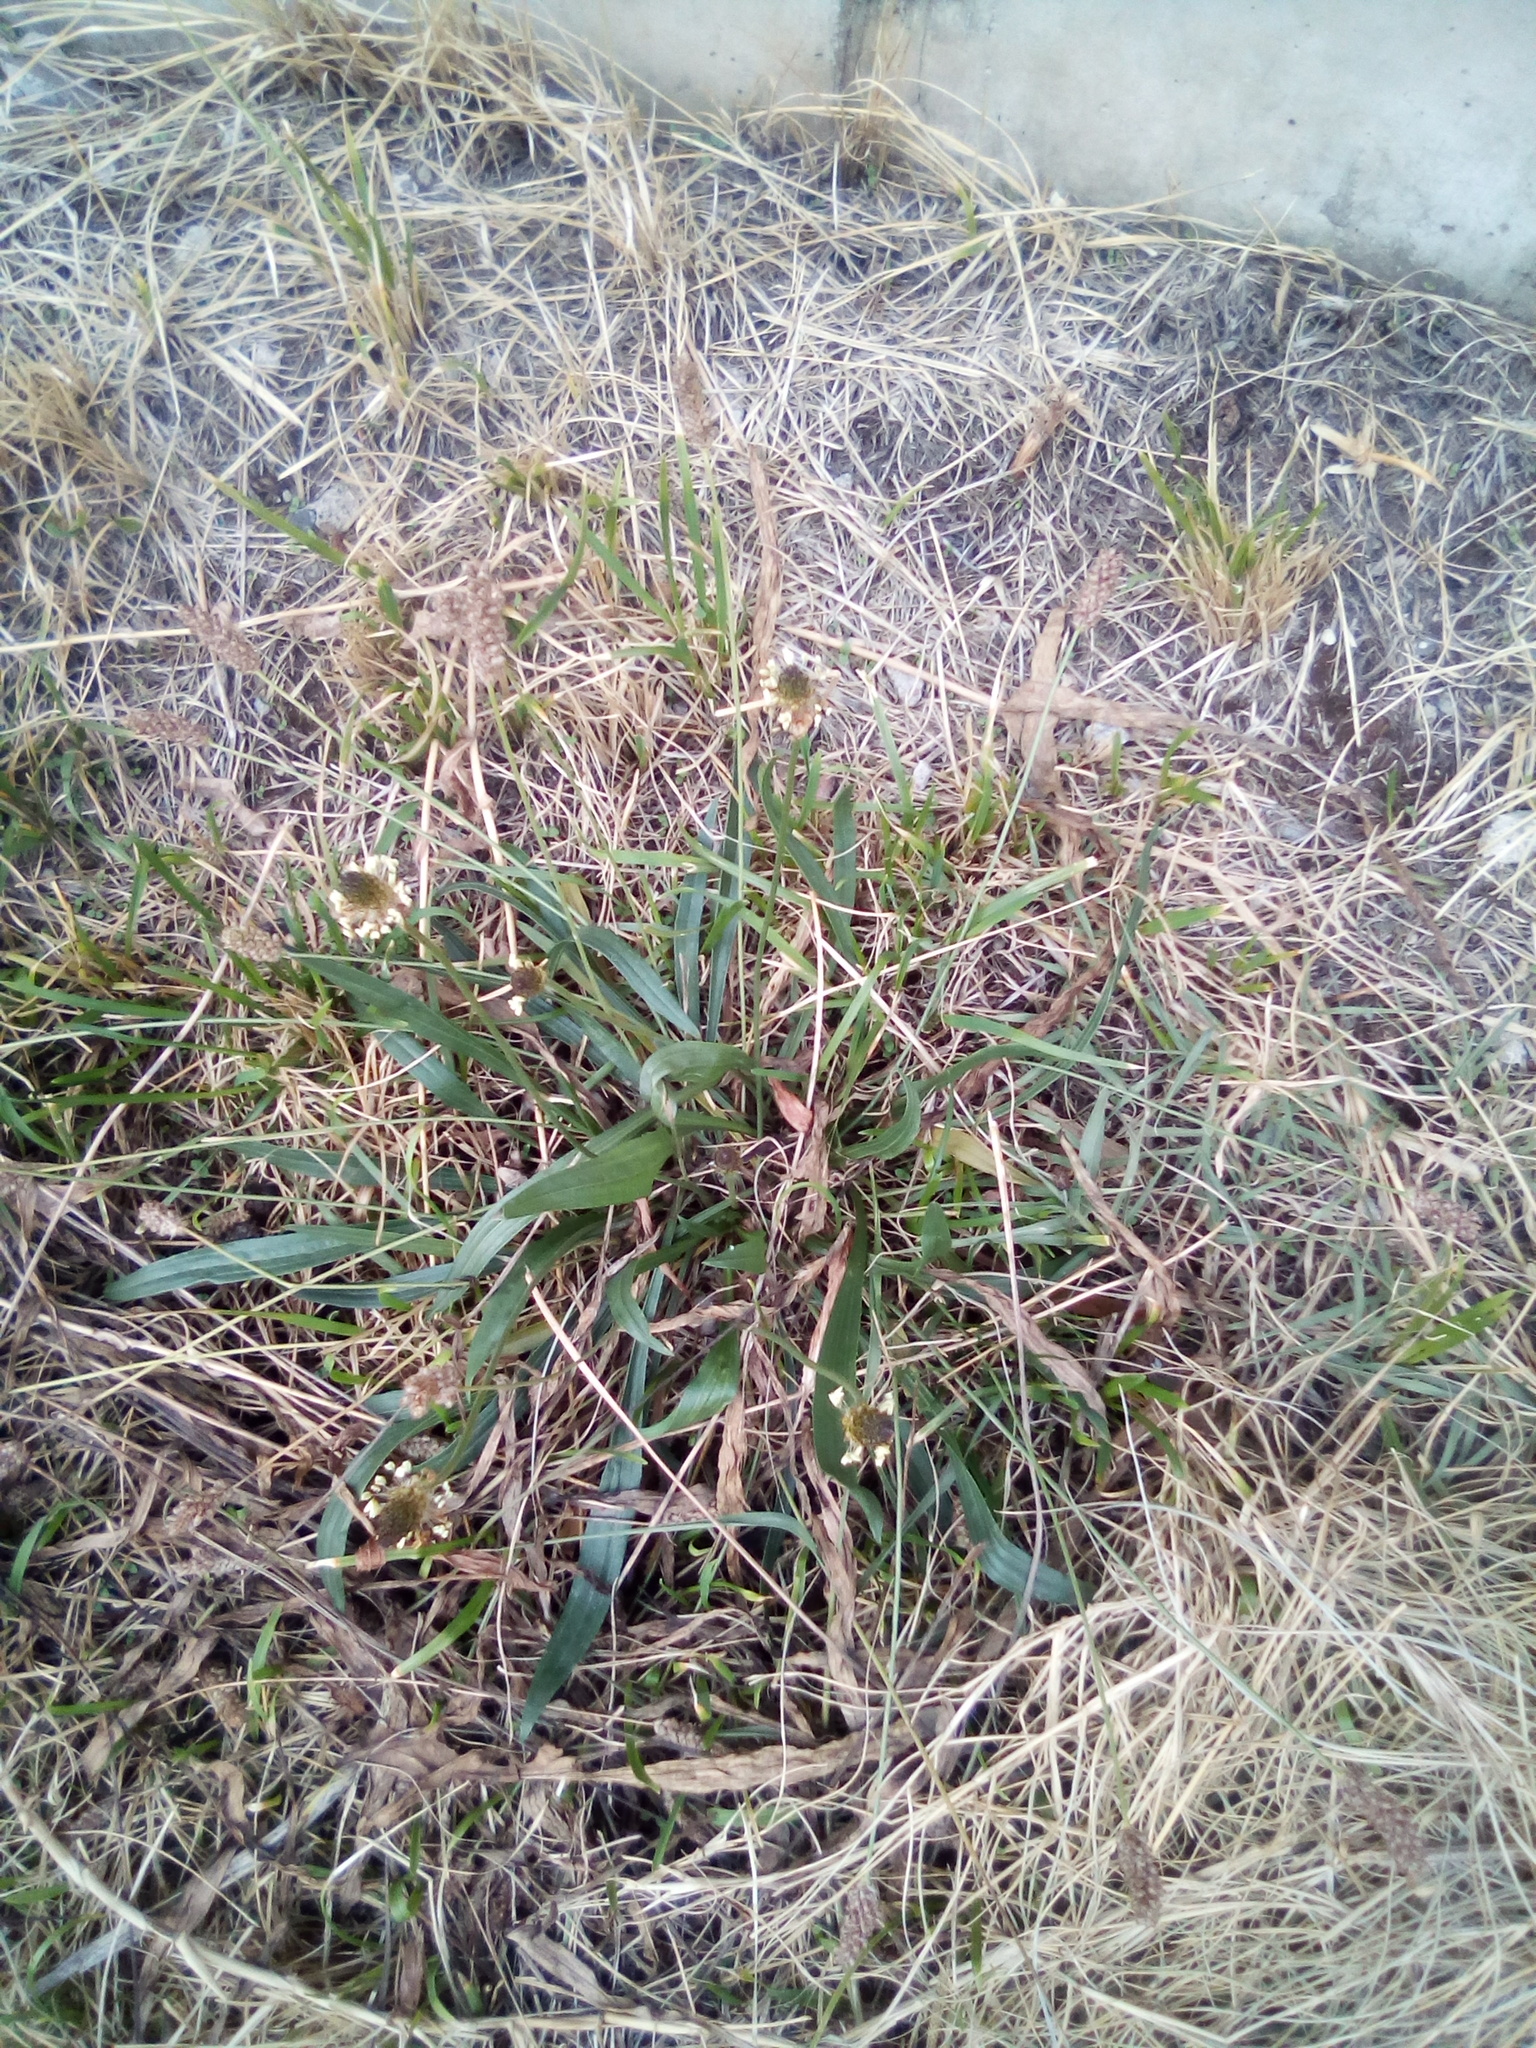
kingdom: Plantae
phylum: Tracheophyta
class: Magnoliopsida
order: Lamiales
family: Plantaginaceae
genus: Plantago
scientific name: Plantago lanceolata
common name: Ribwort plantain
